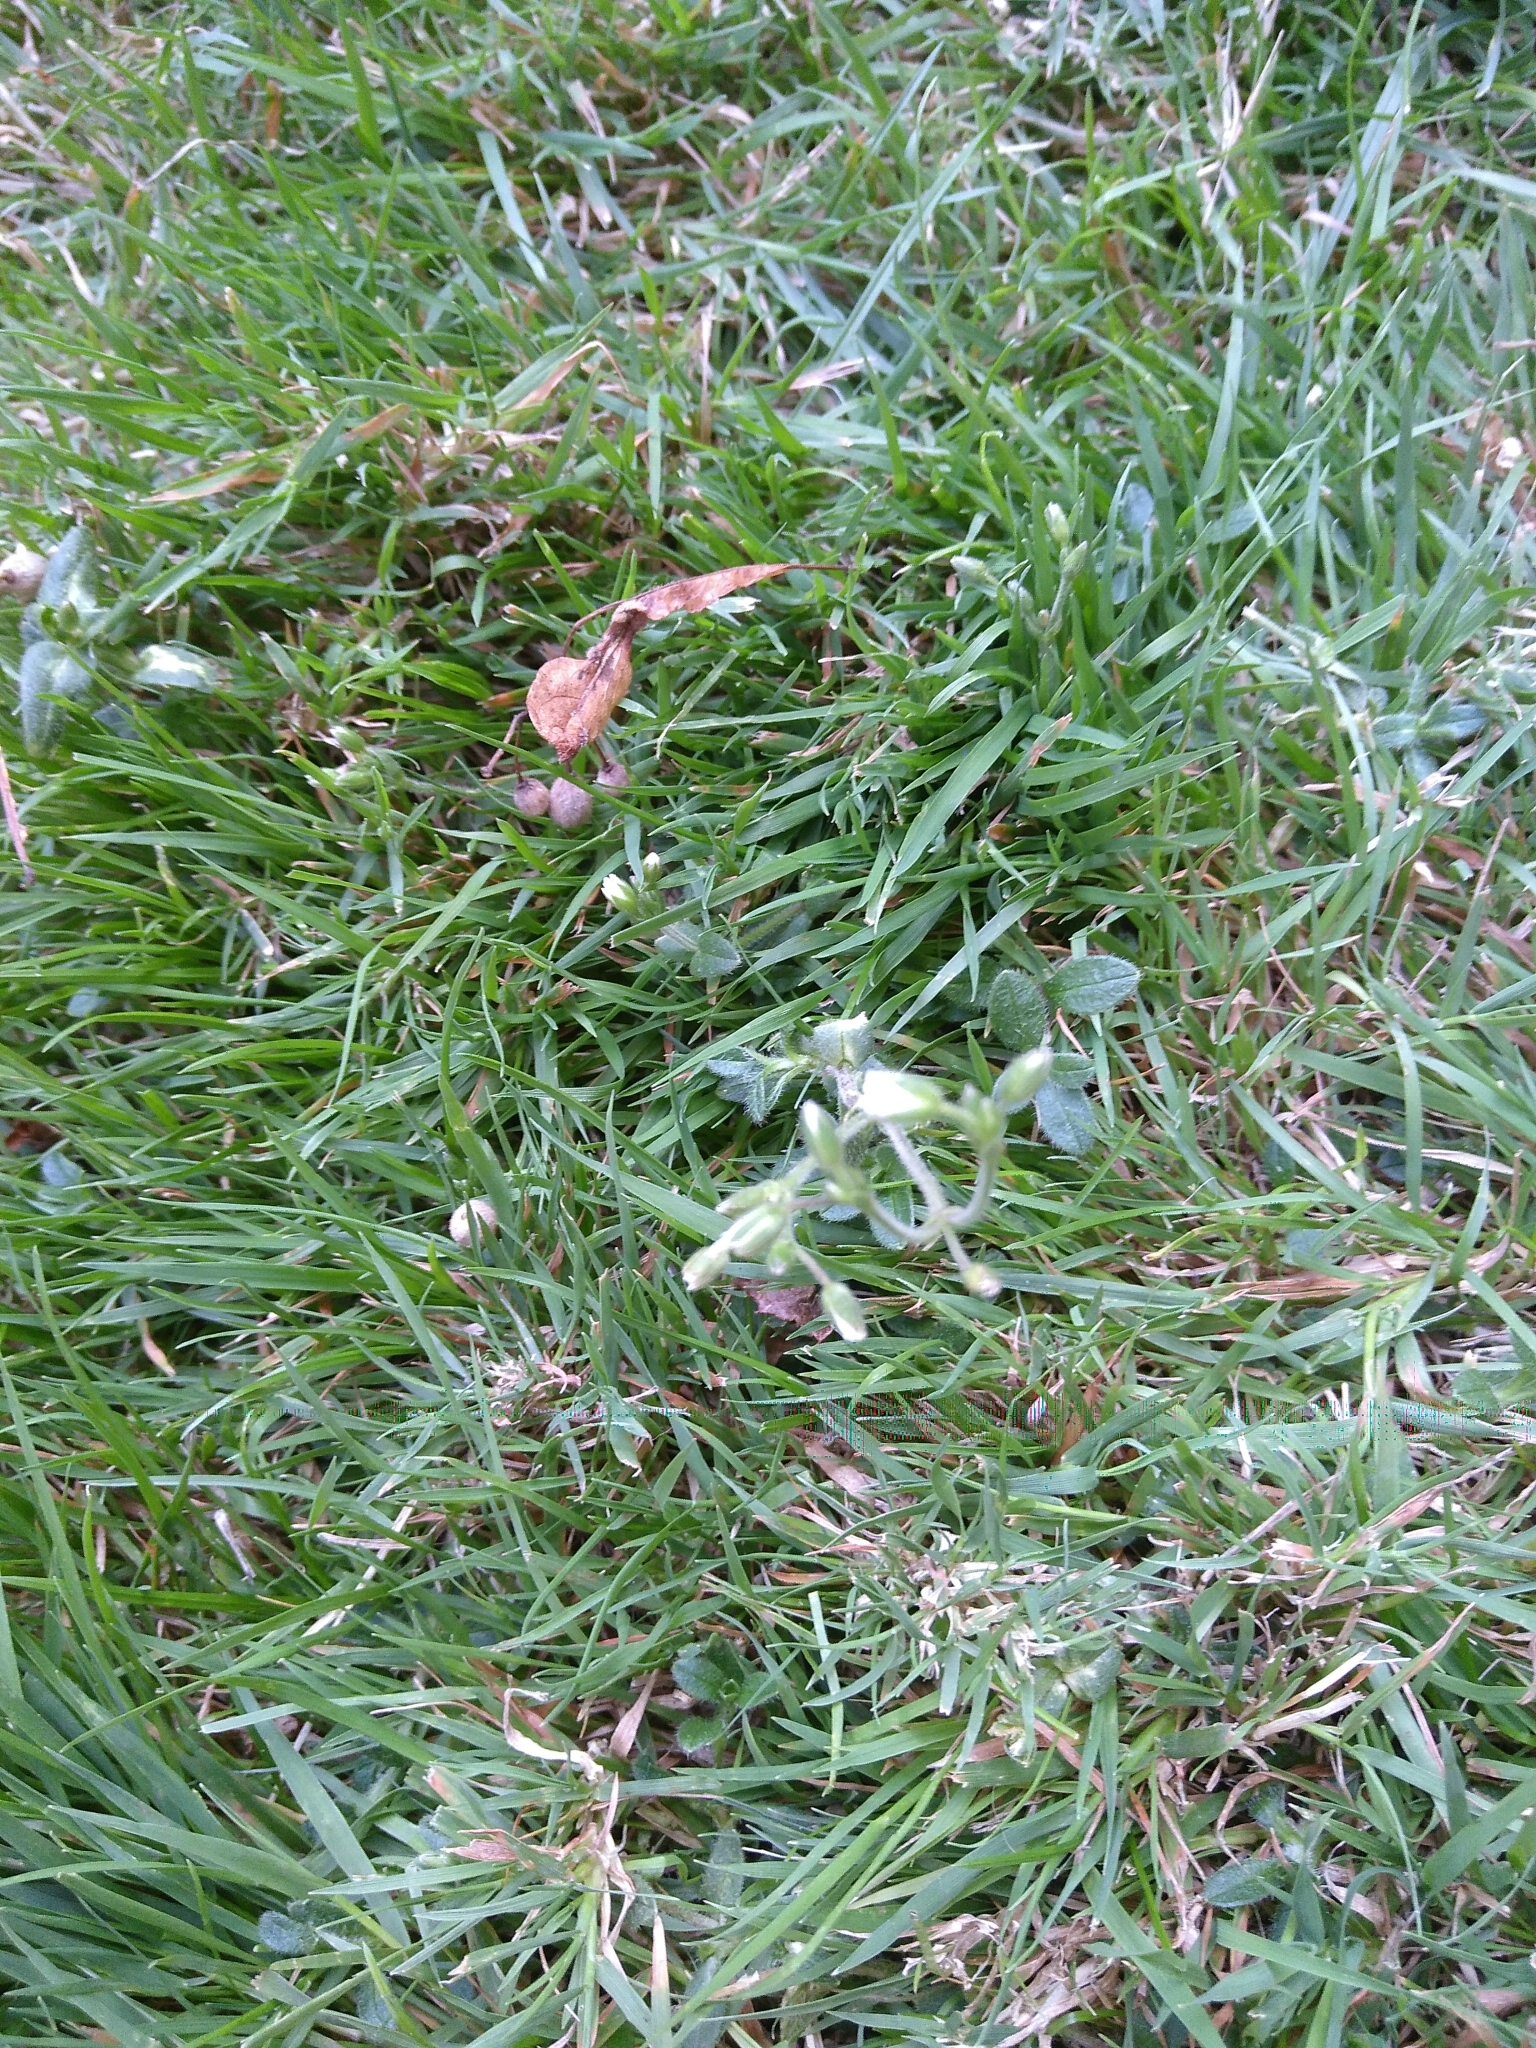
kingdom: Plantae
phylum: Tracheophyta
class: Magnoliopsida
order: Caryophyllales
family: Caryophyllaceae
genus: Cerastium
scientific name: Cerastium fontanum
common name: Common mouse-ear
